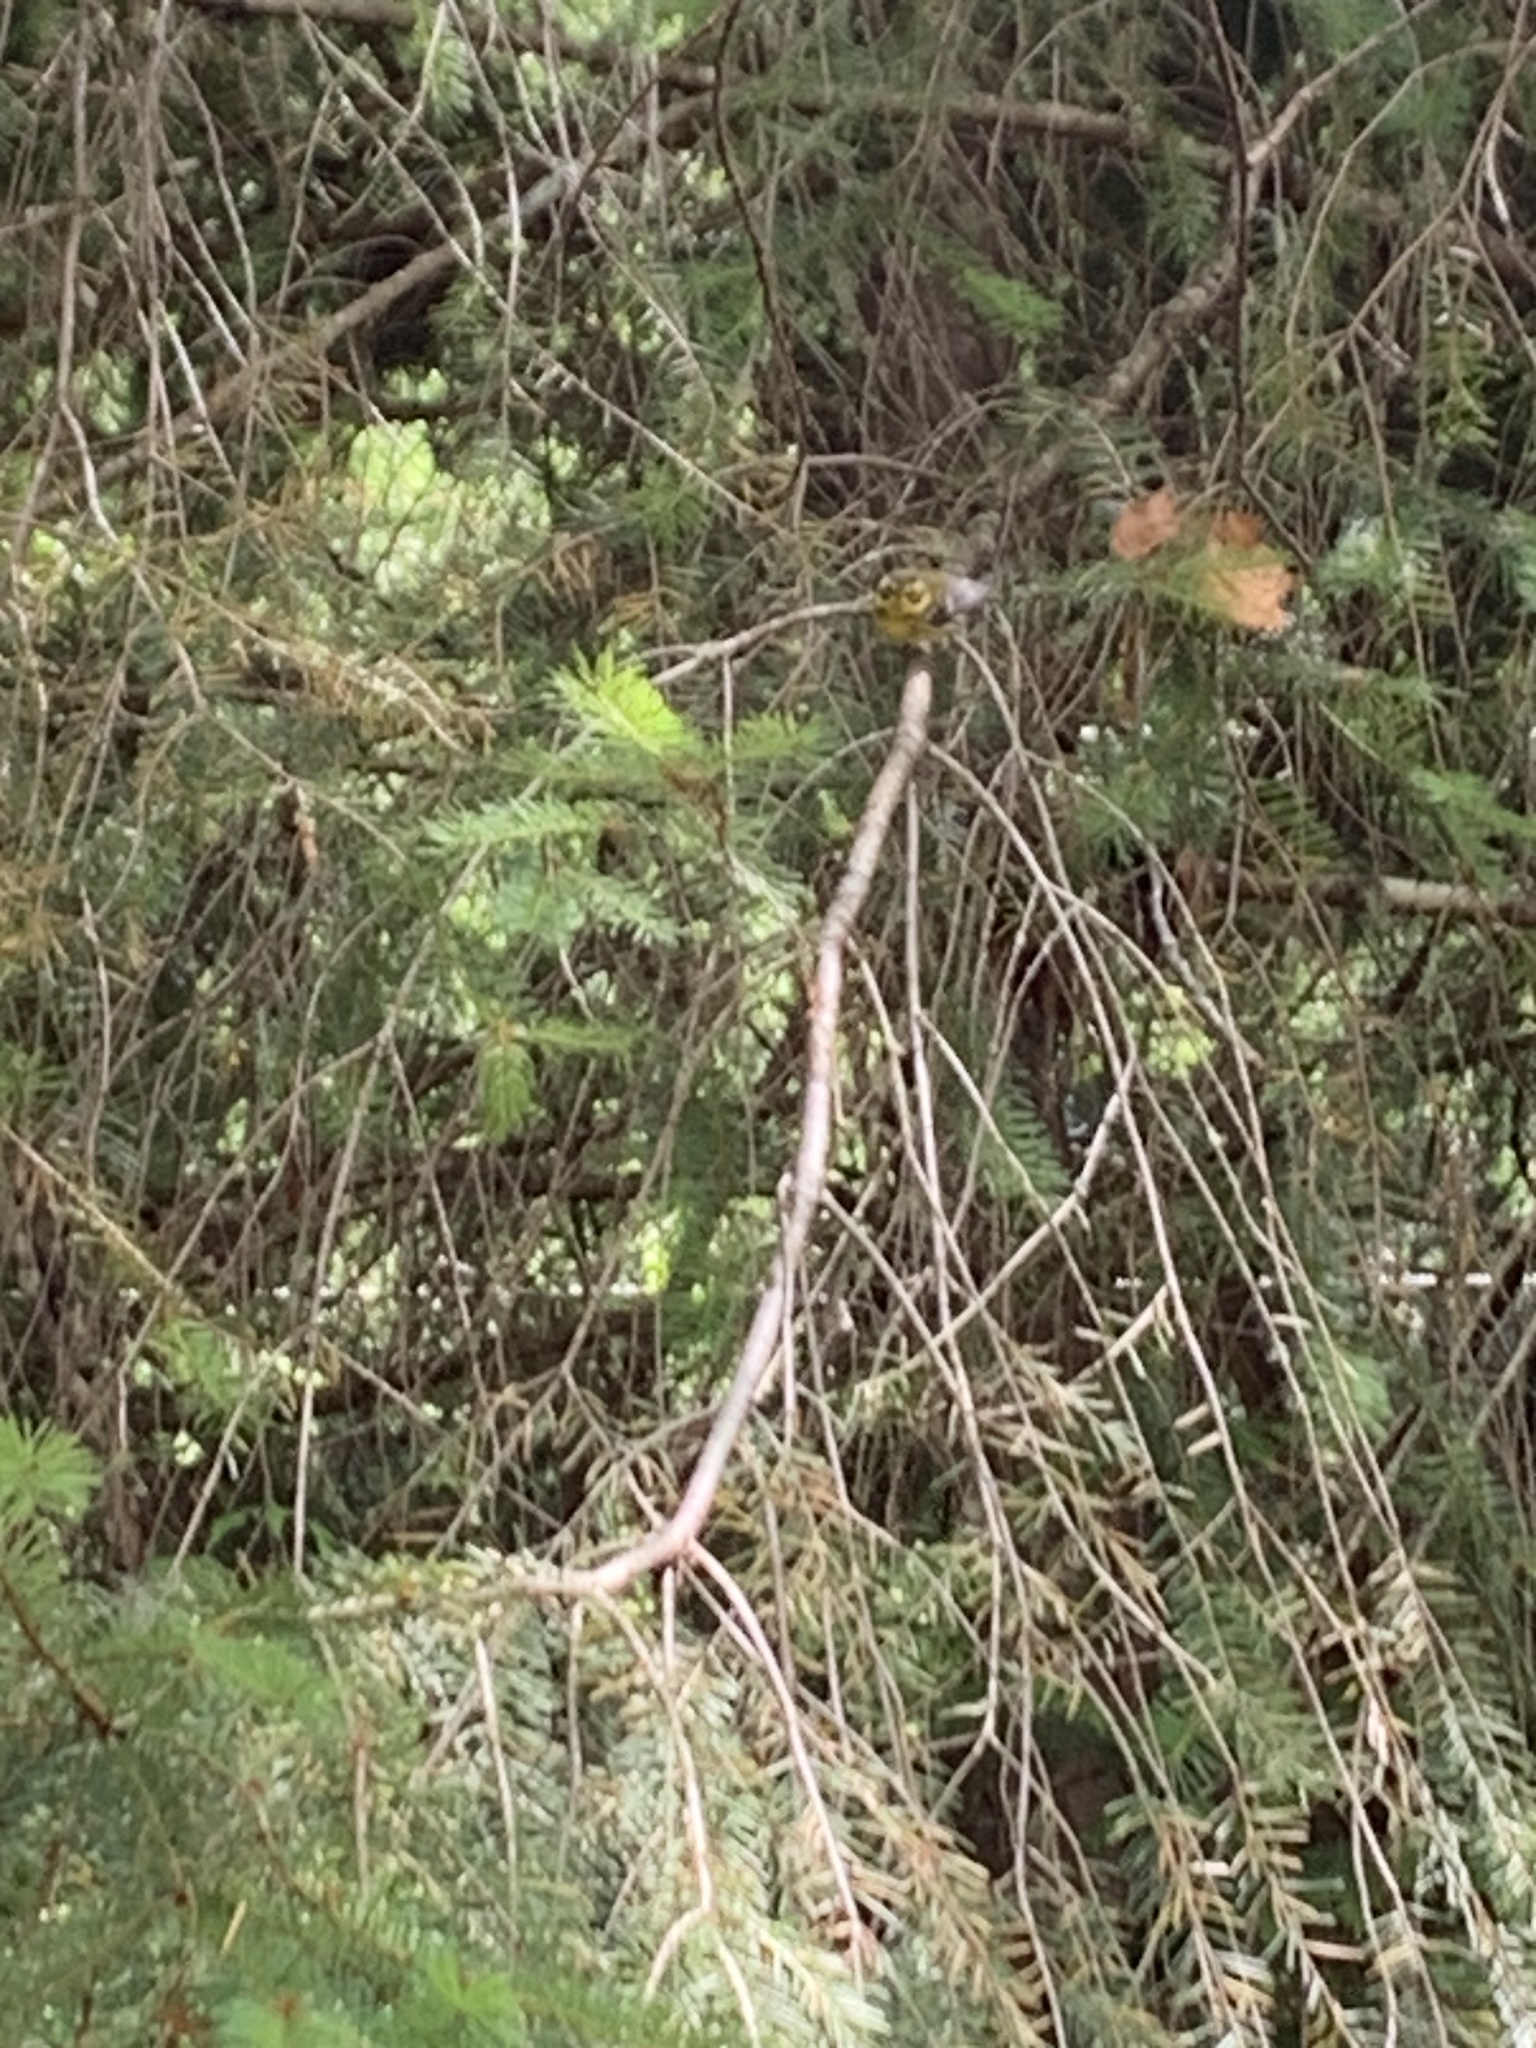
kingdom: Animalia
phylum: Chordata
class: Aves
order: Passeriformes
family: Parulidae
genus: Setophaga
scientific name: Setophaga townsendi
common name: Townsend's warbler
